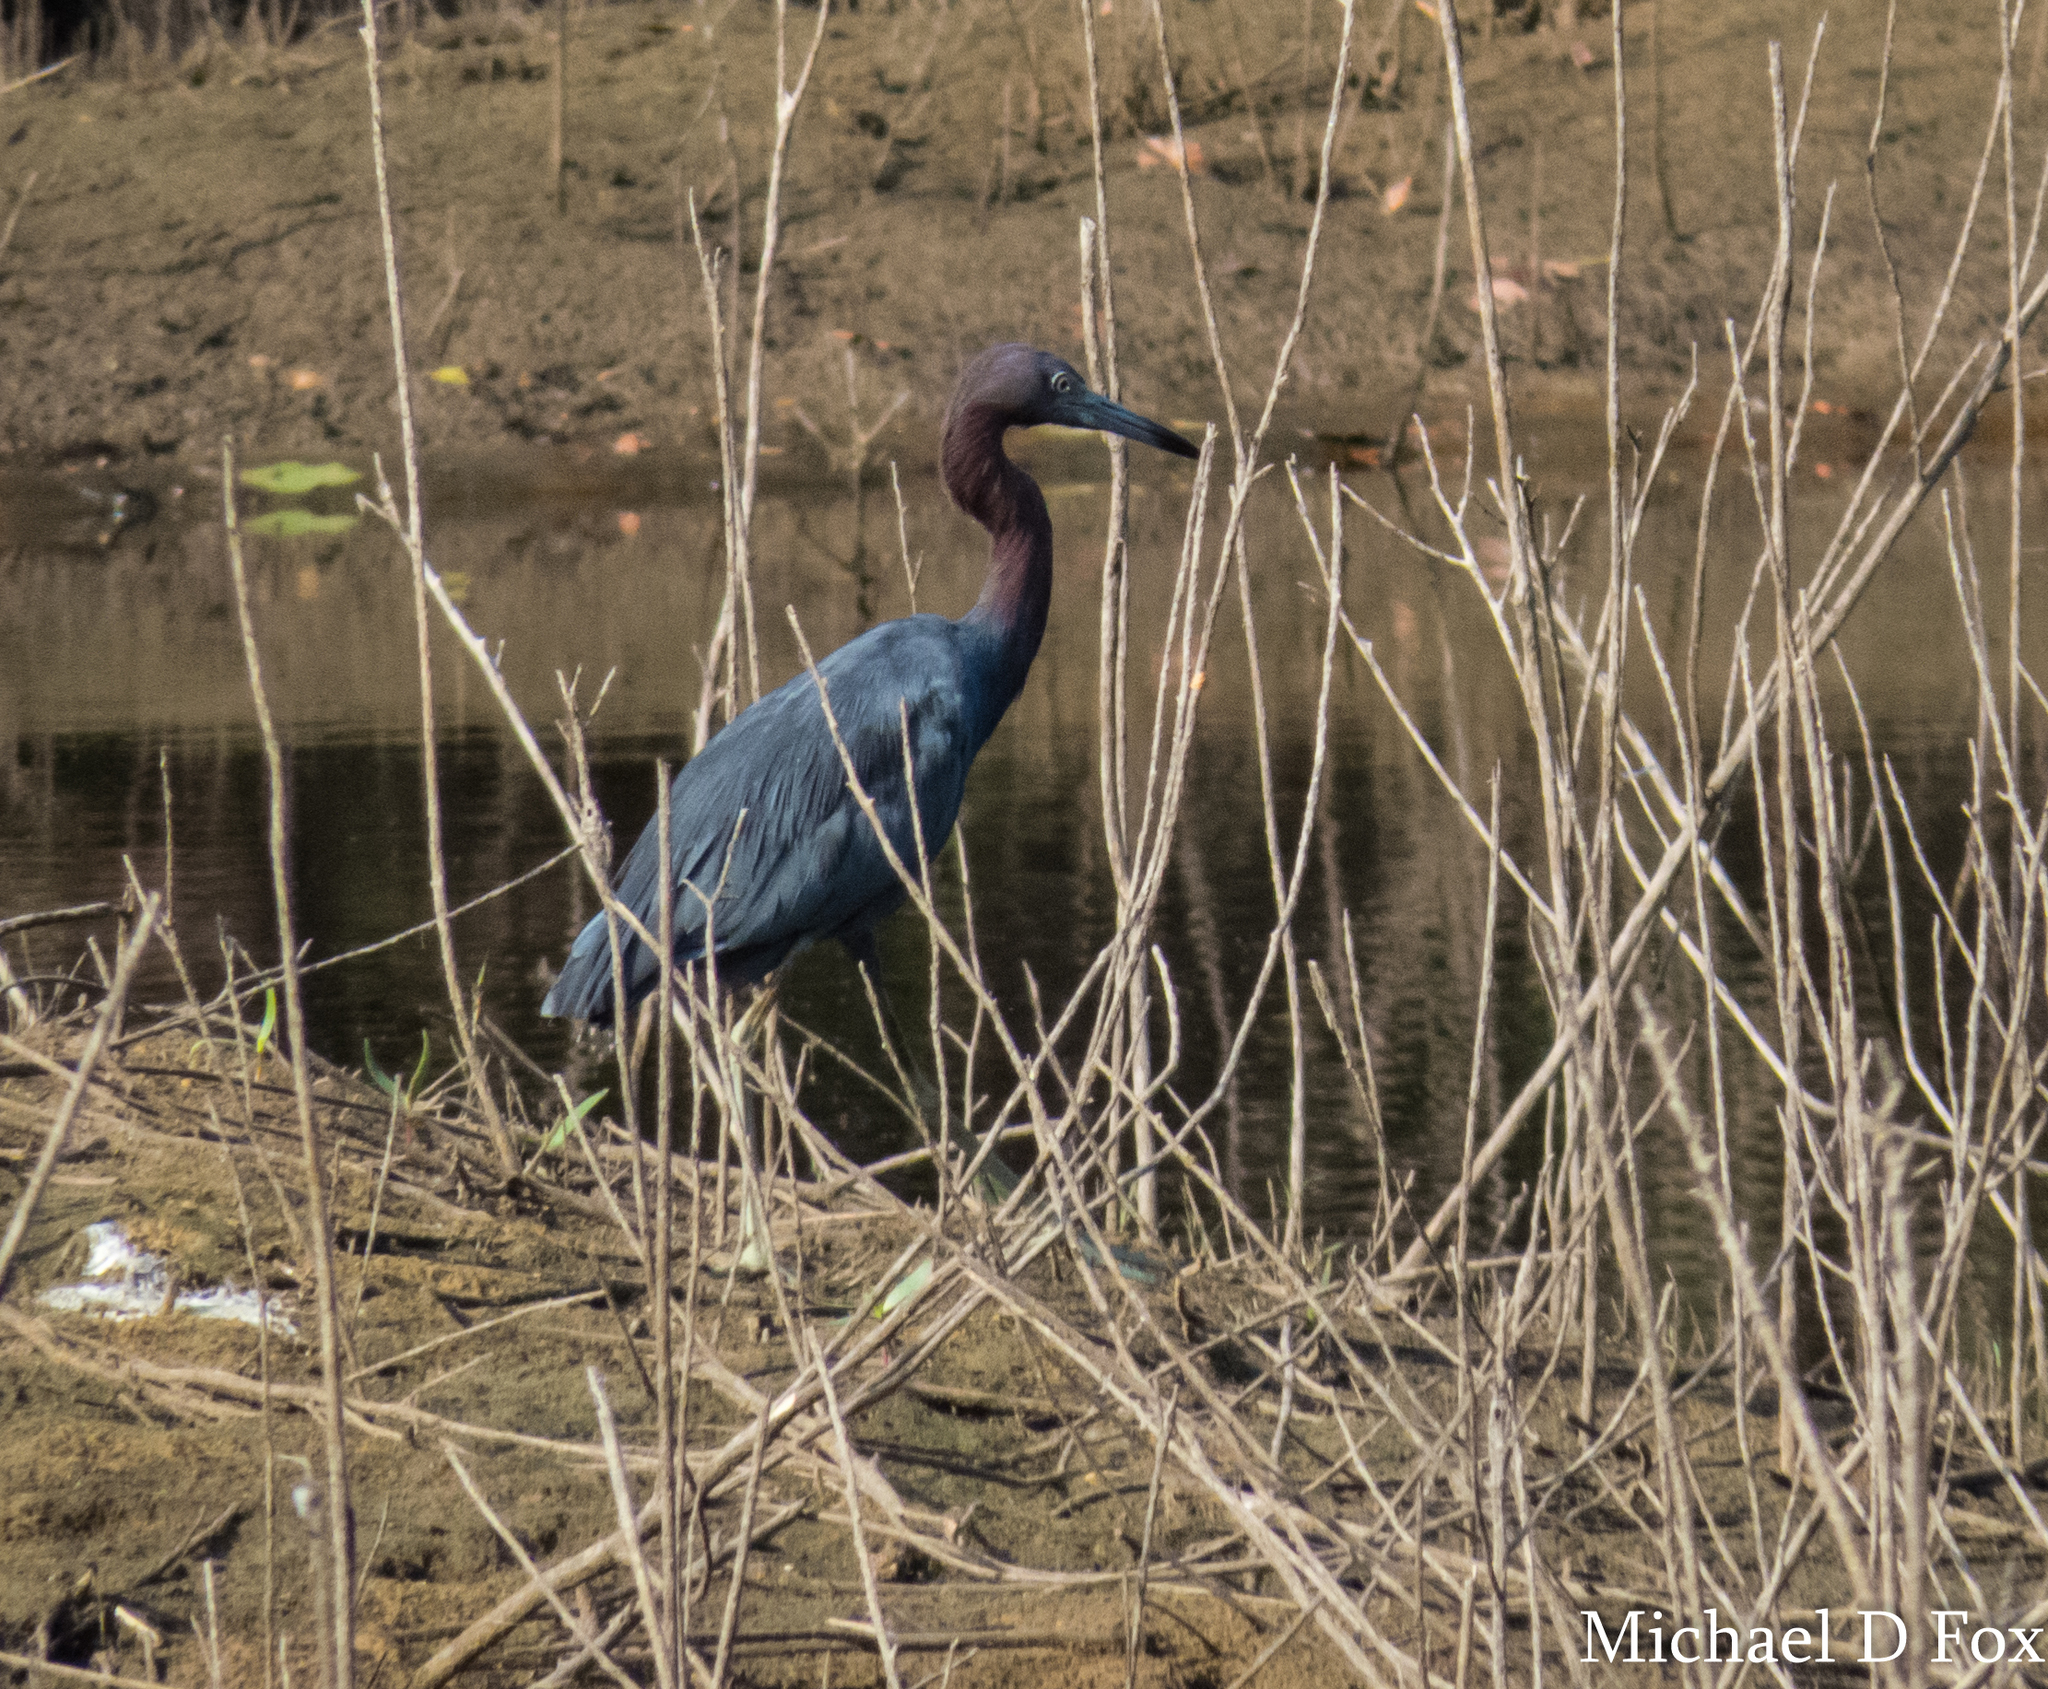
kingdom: Animalia
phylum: Chordata
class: Aves
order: Pelecaniformes
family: Ardeidae
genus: Egretta
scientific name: Egretta caerulea
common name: Little blue heron
